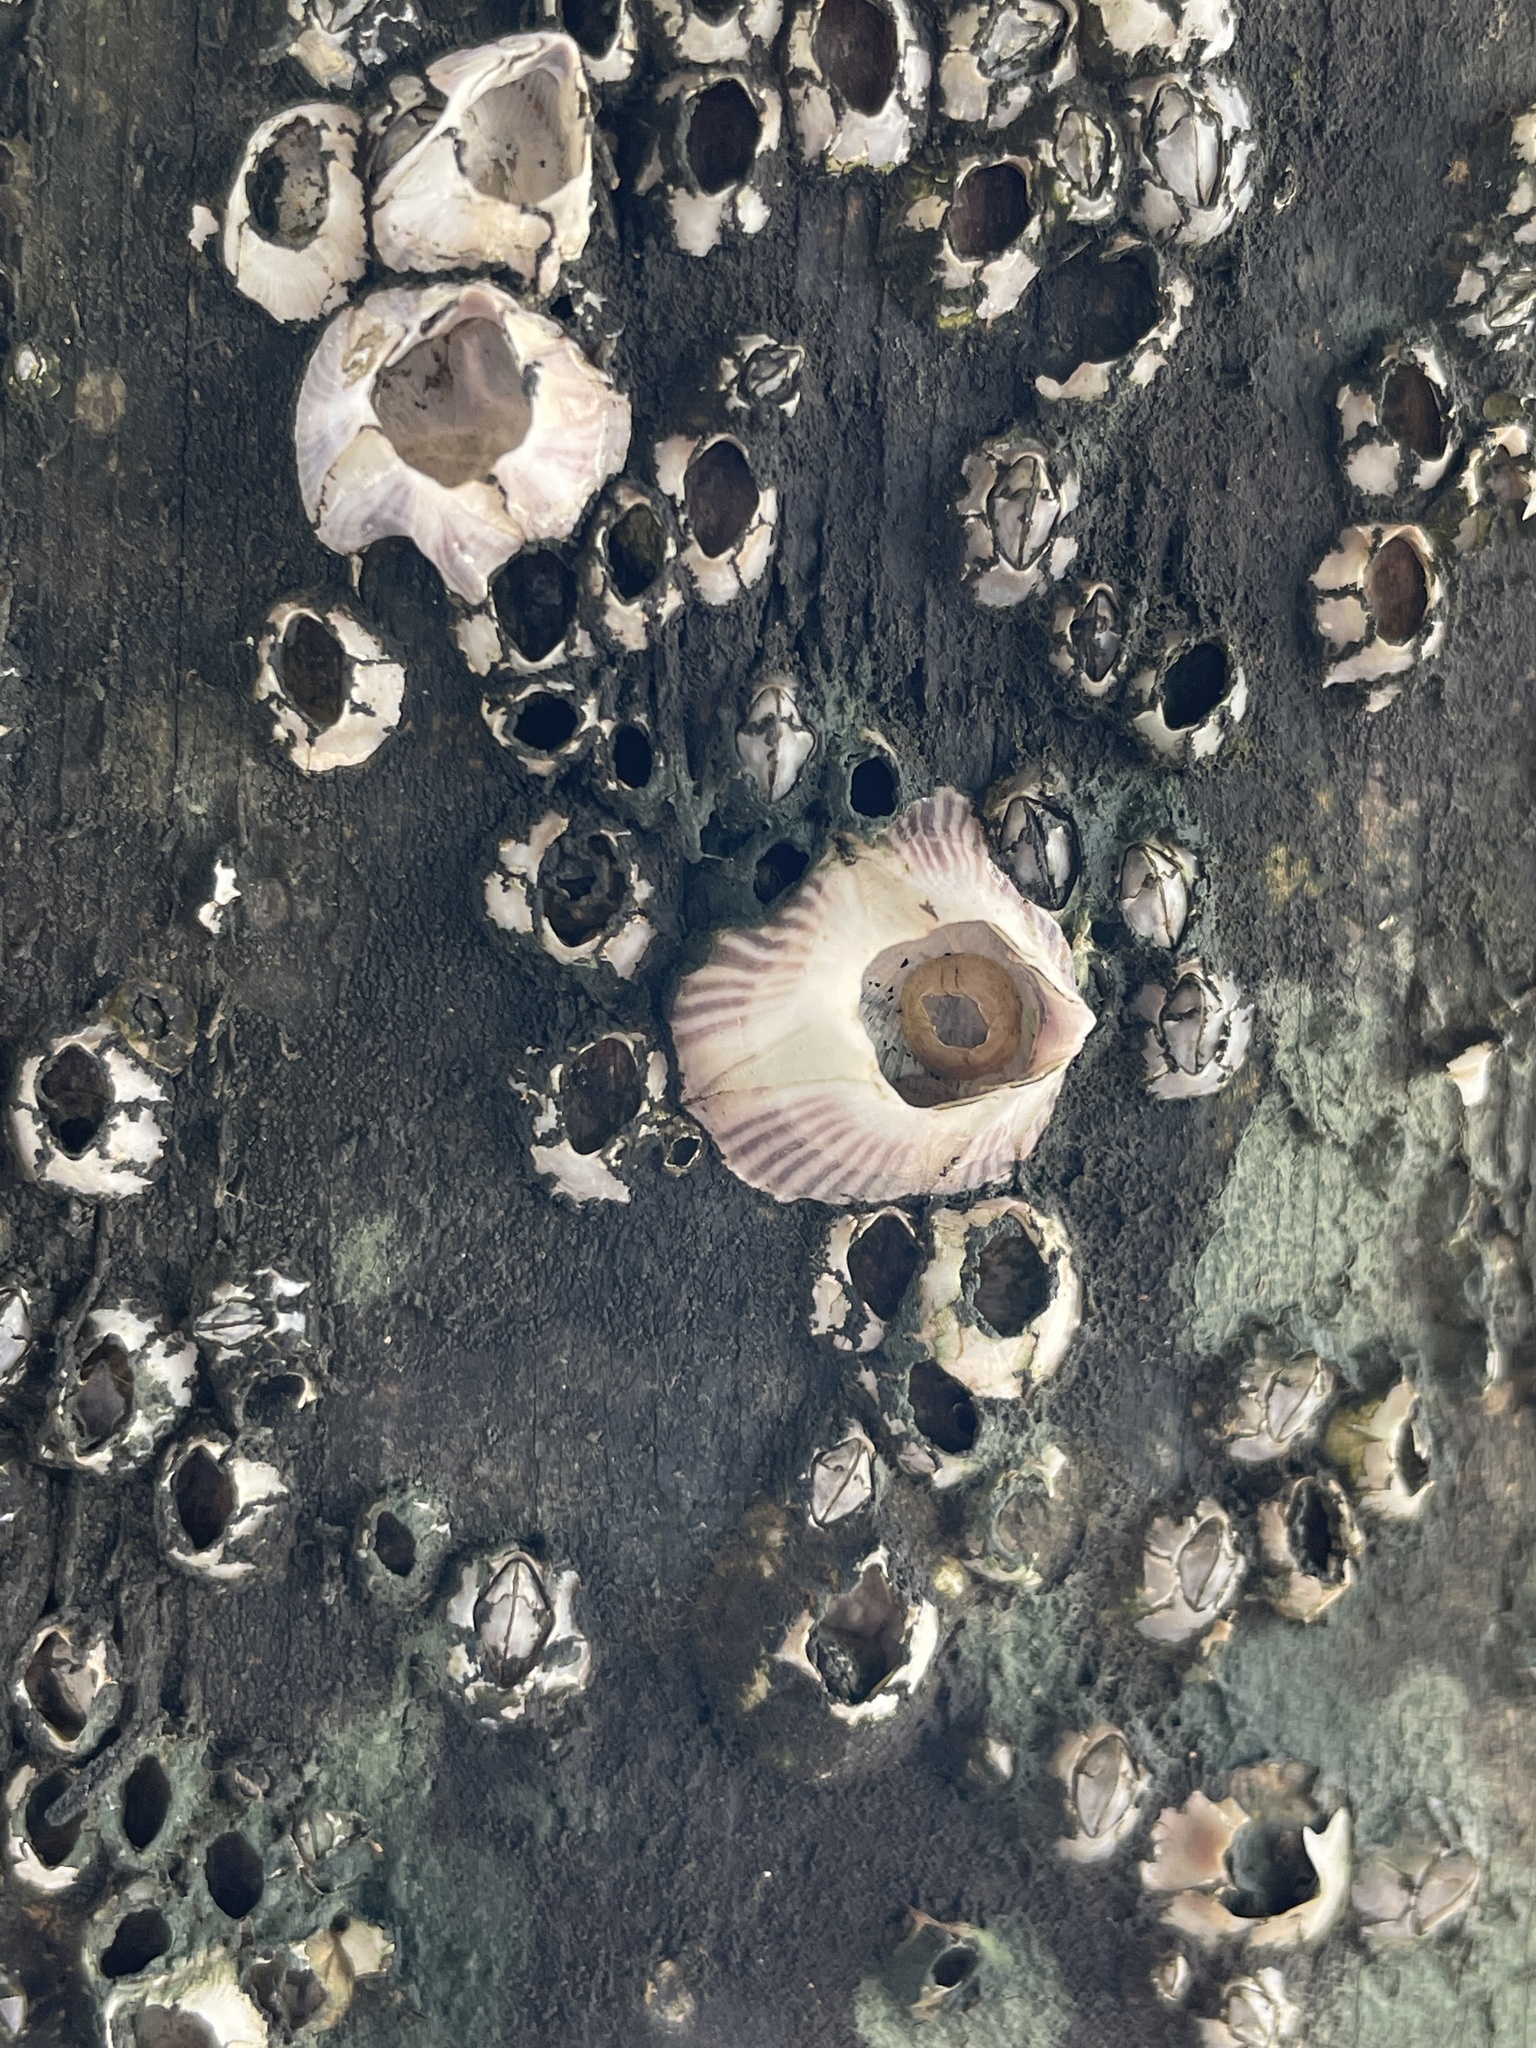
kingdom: Animalia
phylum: Arthropoda
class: Maxillopoda
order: Sessilia
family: Balanidae
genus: Amphibalanus
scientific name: Amphibalanus amphitrite
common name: Striped acorn barnacle
